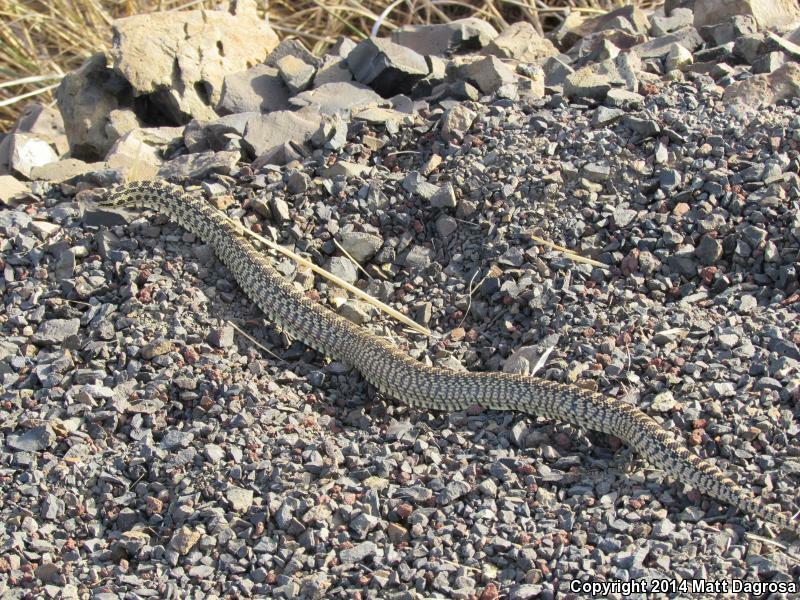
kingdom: Animalia
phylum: Chordata
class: Squamata
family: Colubridae
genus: Pituophis
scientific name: Pituophis catenifer
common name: Gopher snake
